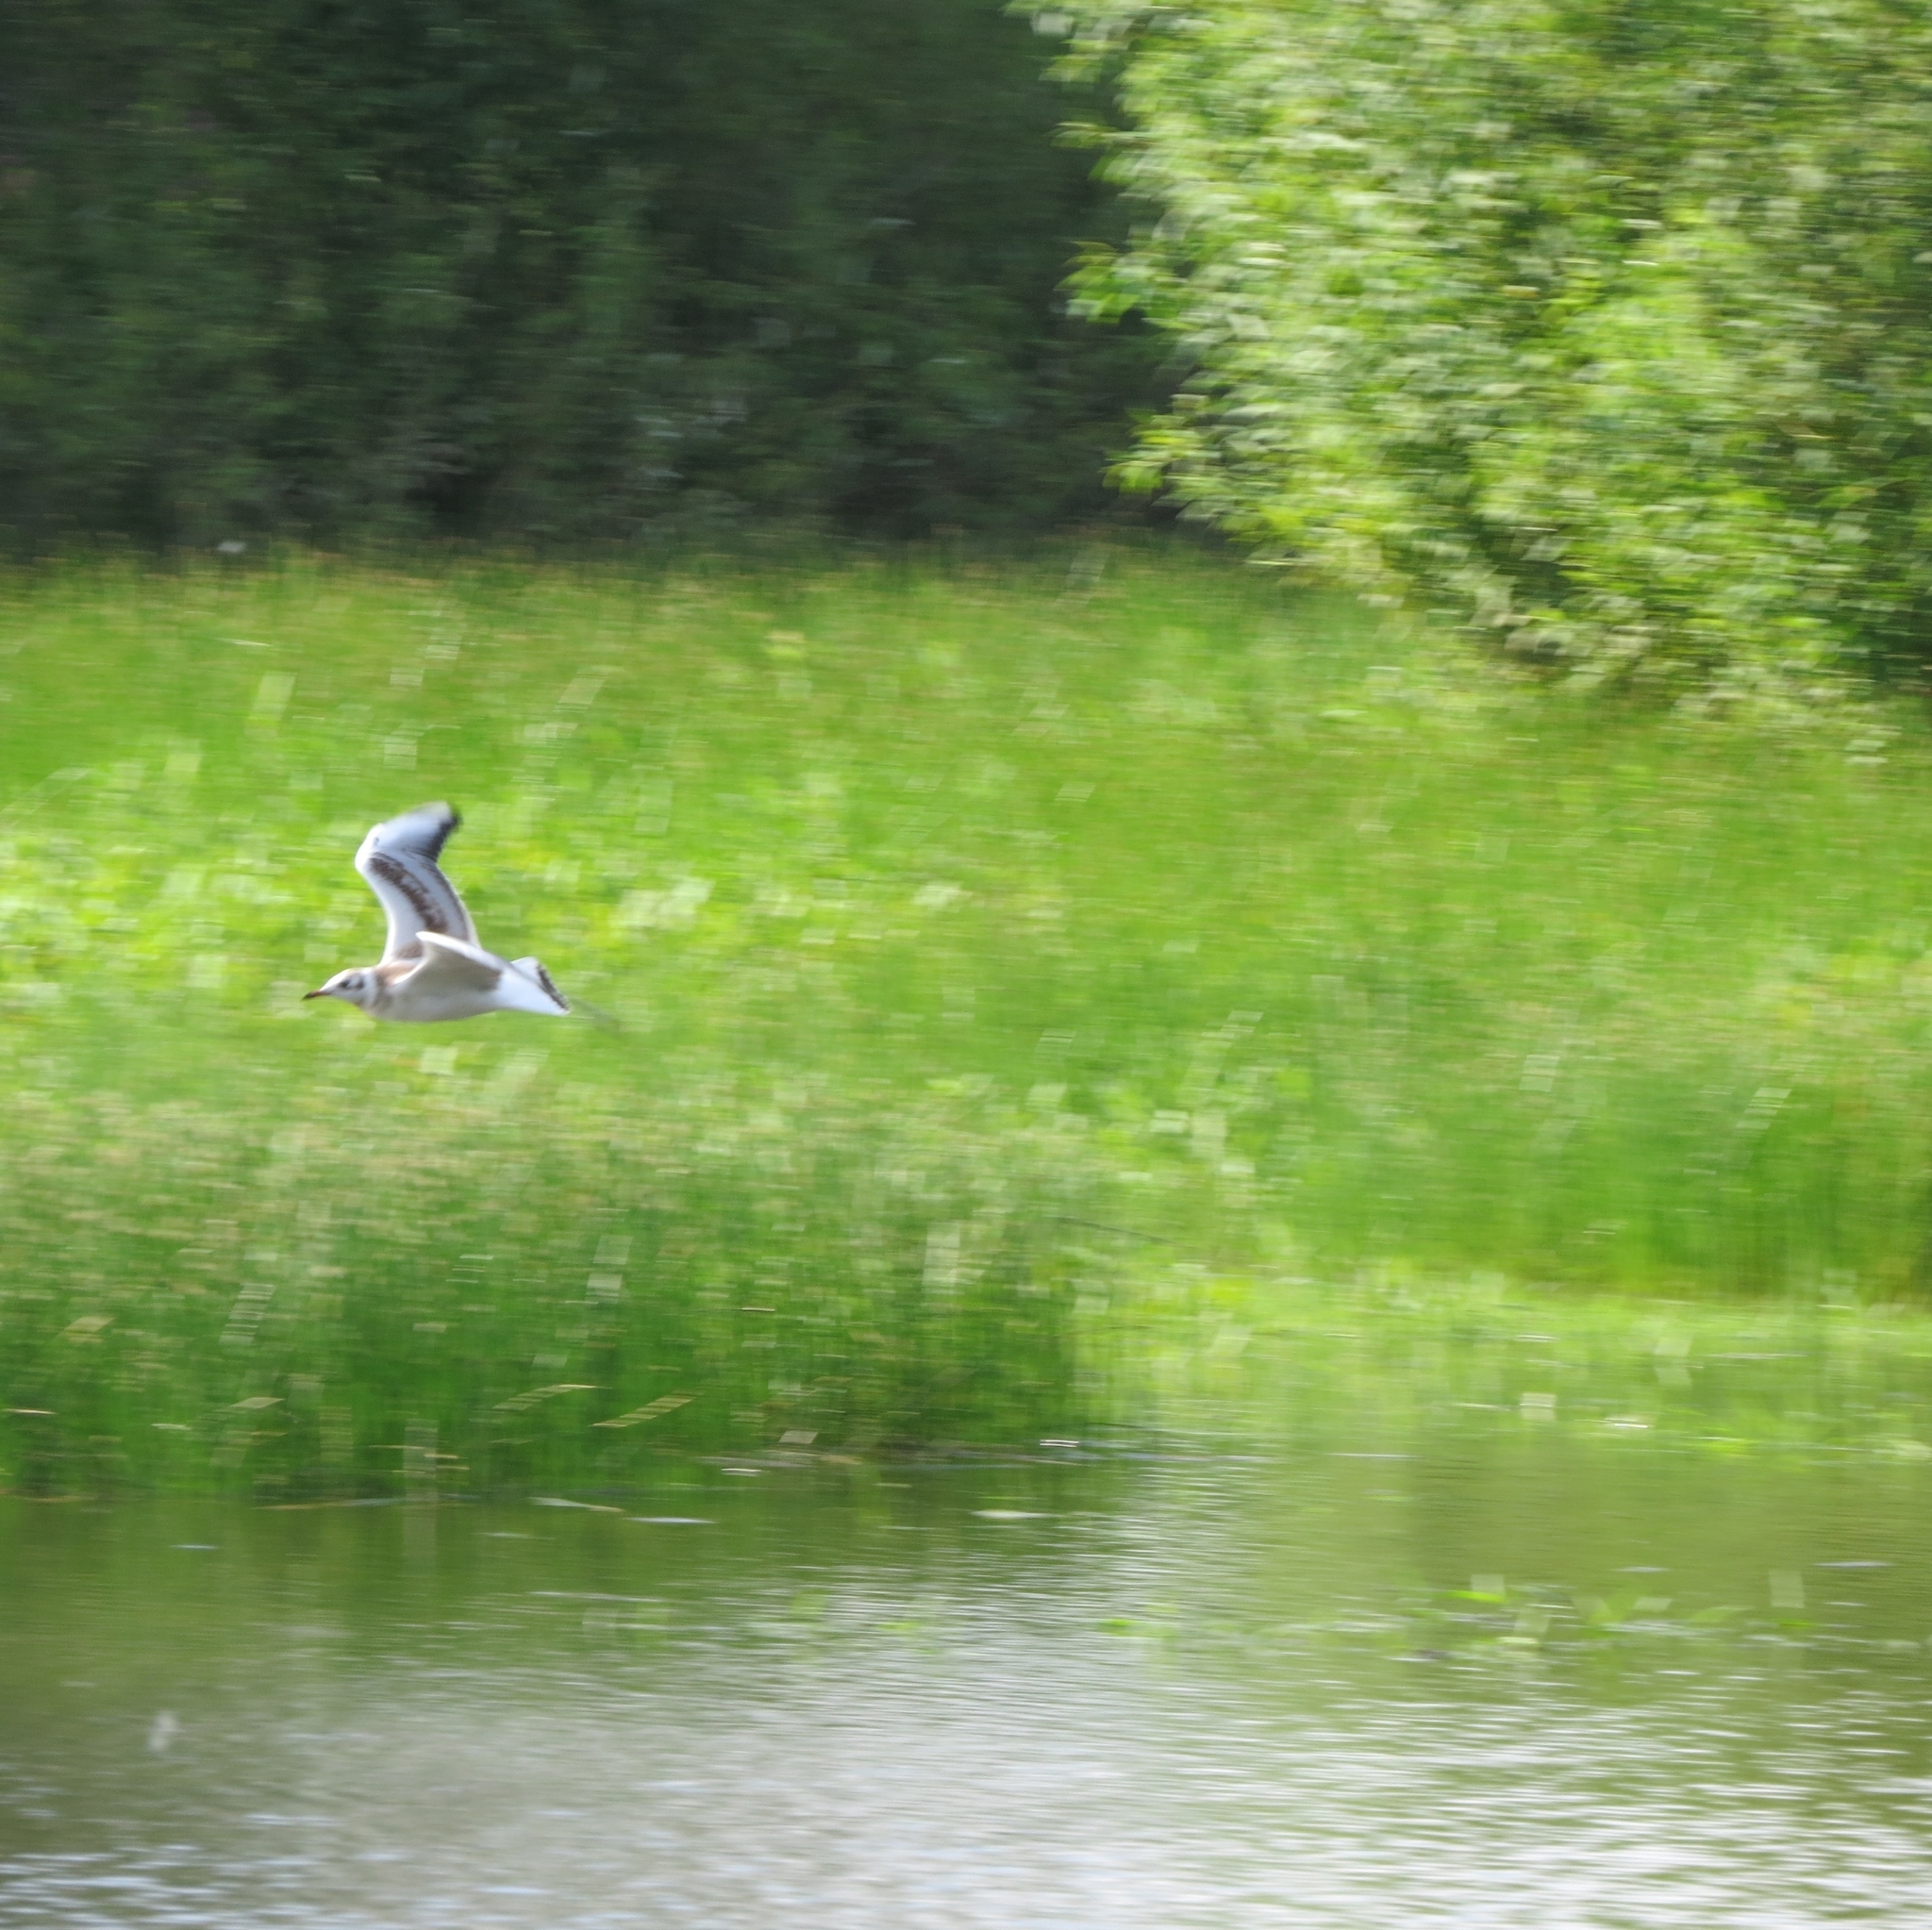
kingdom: Animalia
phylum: Chordata
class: Aves
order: Charadriiformes
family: Laridae
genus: Chroicocephalus
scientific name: Chroicocephalus ridibundus
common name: Black-headed gull
